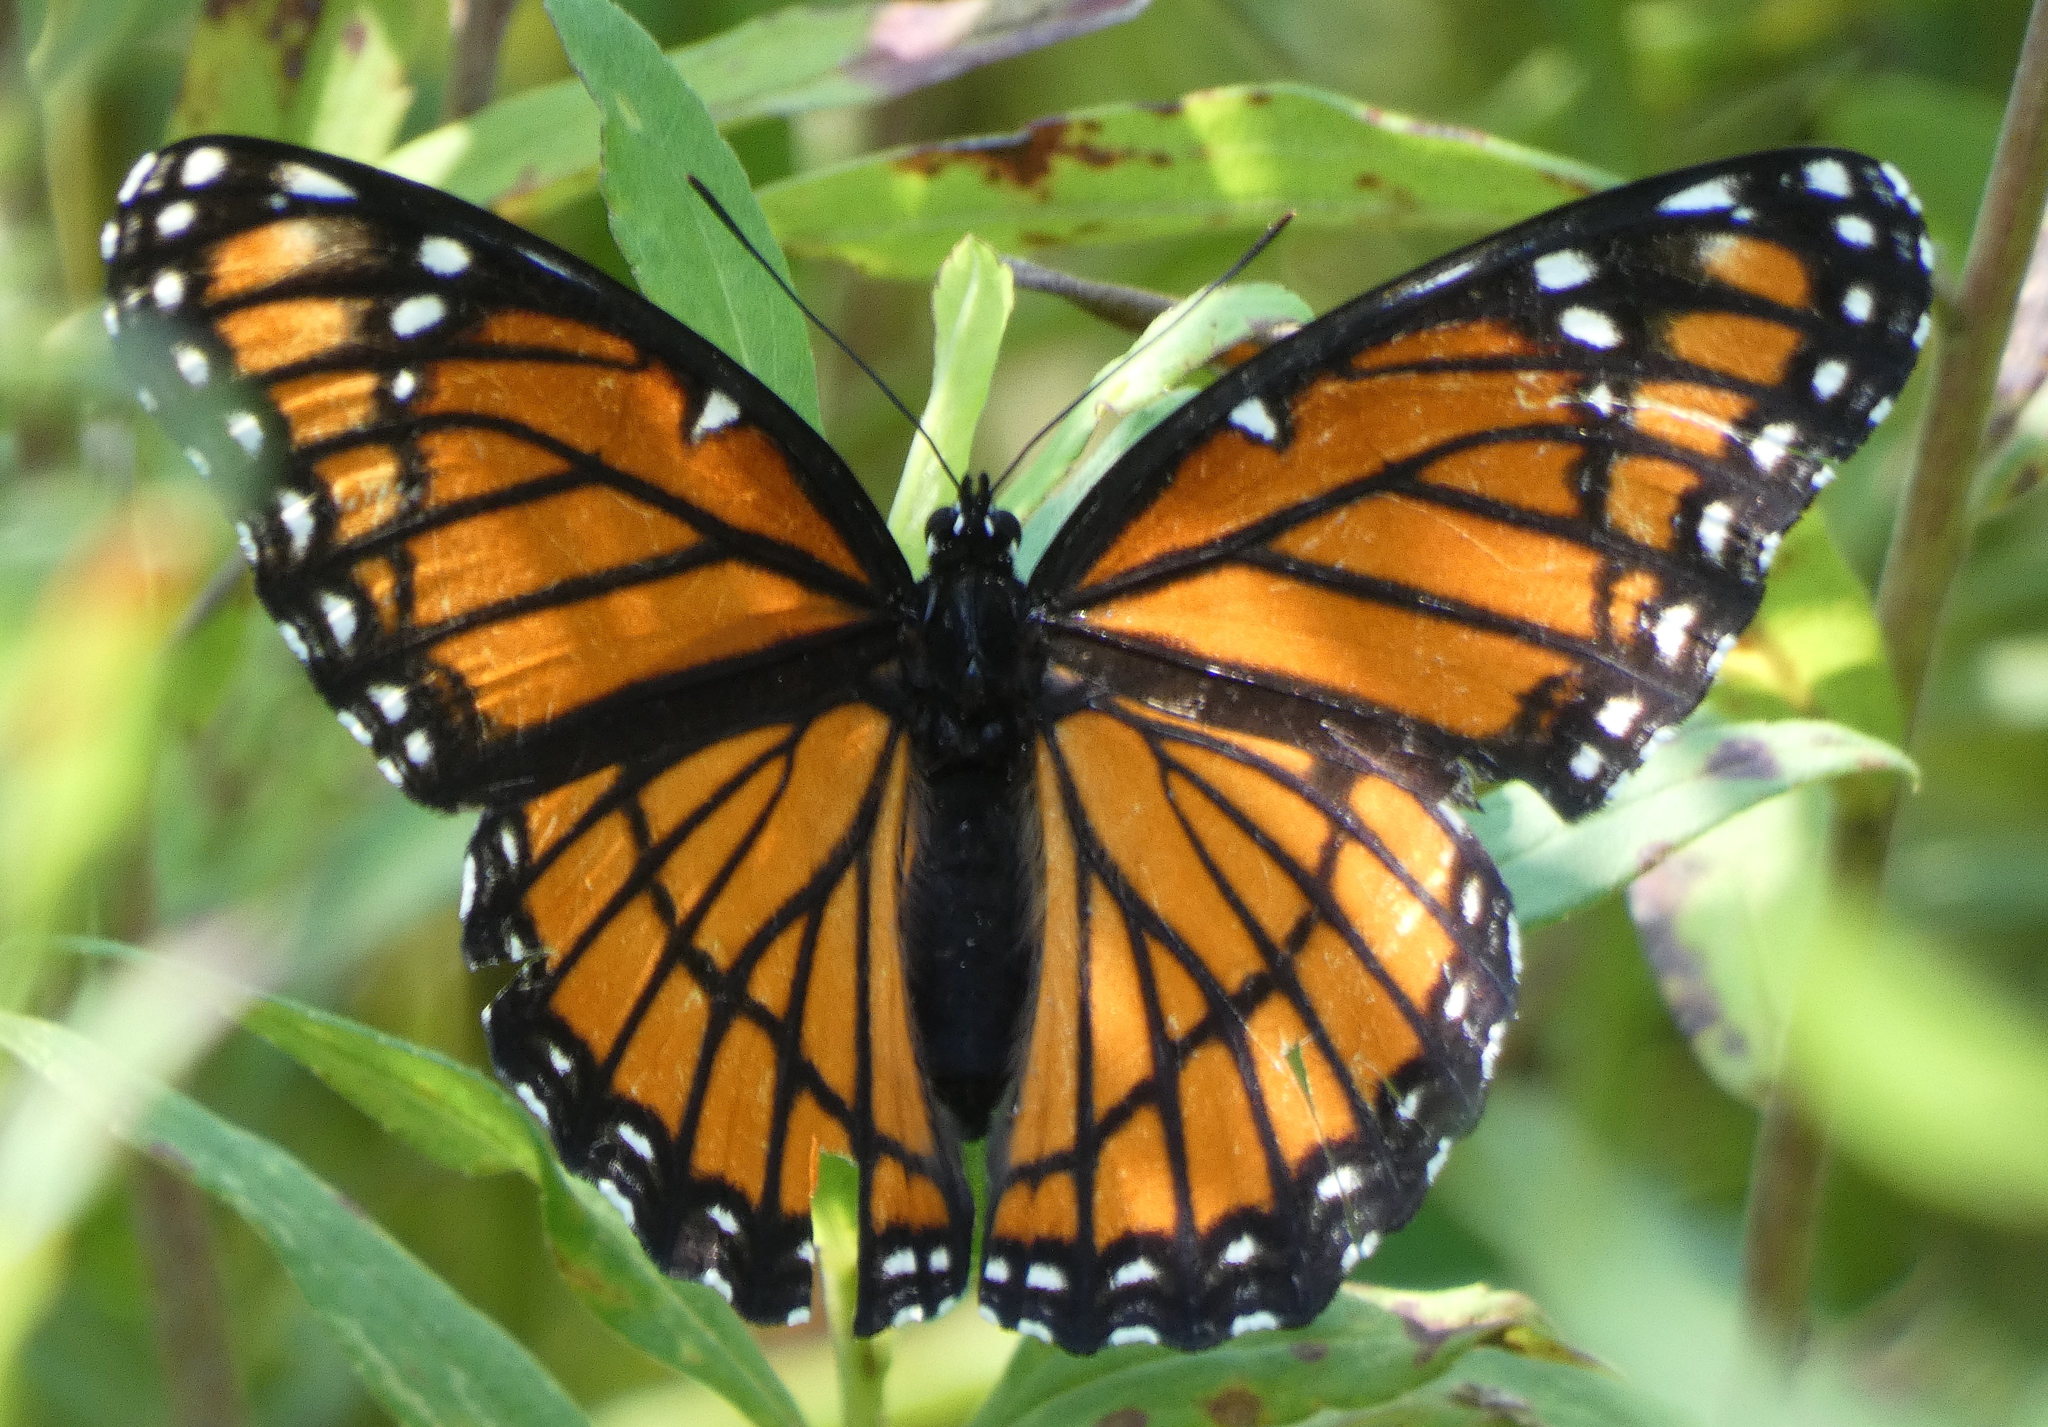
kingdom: Animalia
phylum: Arthropoda
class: Insecta
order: Lepidoptera
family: Nymphalidae
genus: Limenitis
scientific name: Limenitis archippus
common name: Viceroy
